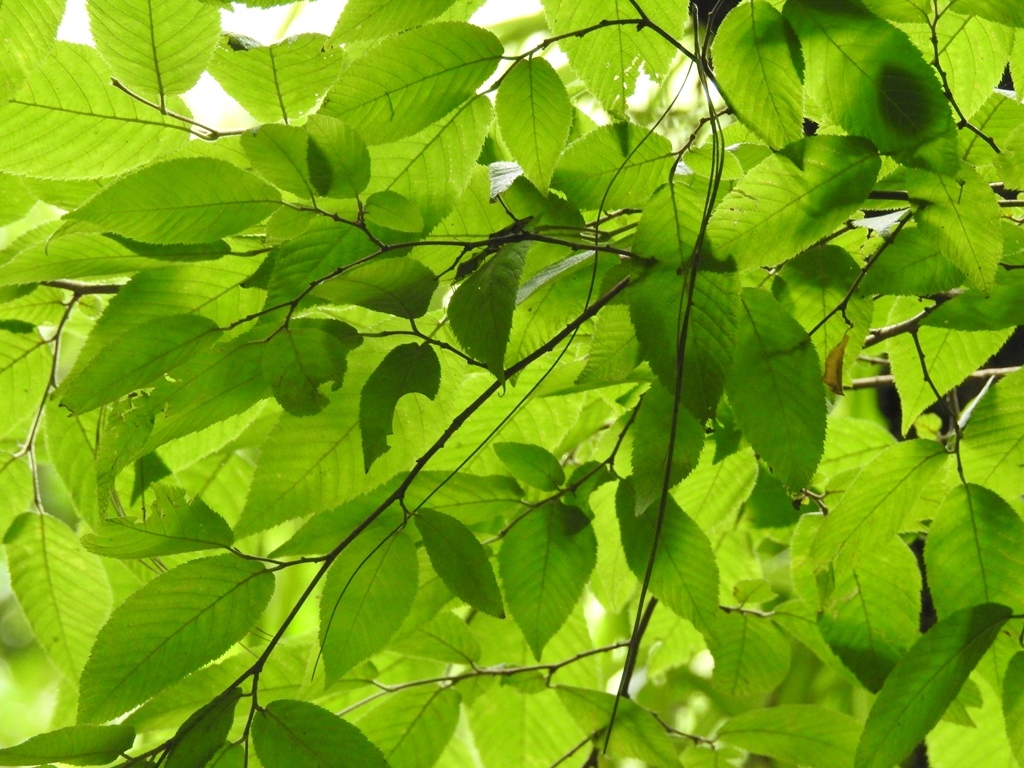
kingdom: Plantae
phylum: Tracheophyta
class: Magnoliopsida
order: Rosales
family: Ulmaceae
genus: Ulmus
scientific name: Ulmus mexicana
